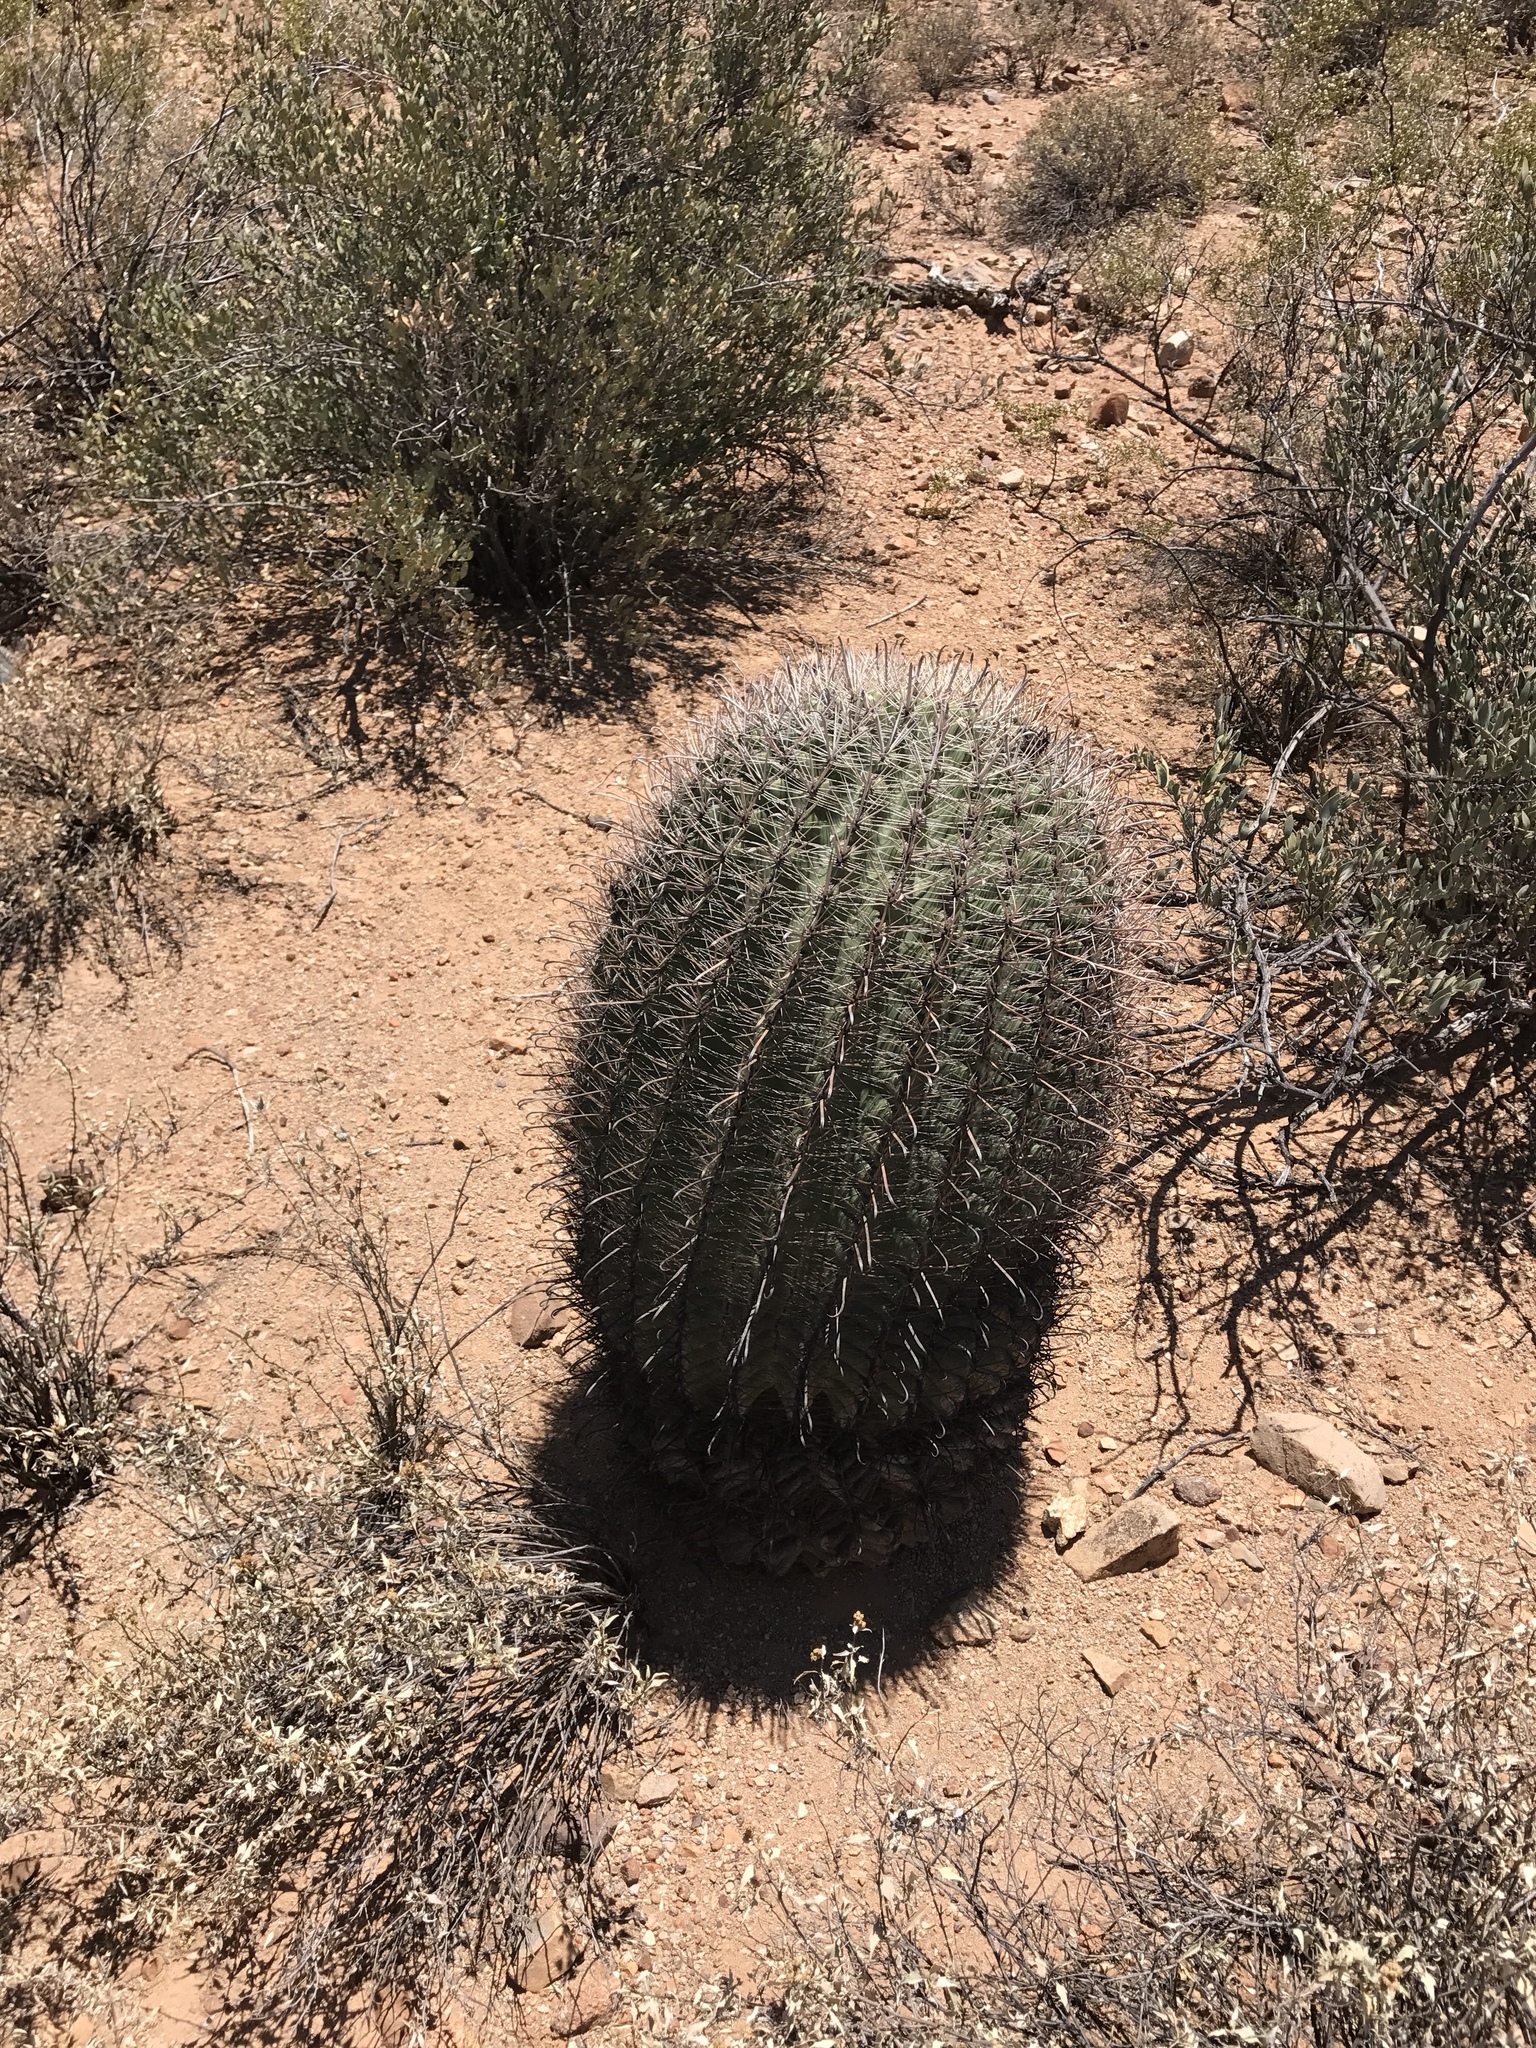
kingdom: Plantae
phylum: Tracheophyta
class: Magnoliopsida
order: Caryophyllales
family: Cactaceae
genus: Ferocactus
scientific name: Ferocactus wislizeni
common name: Candy barrel cactus
